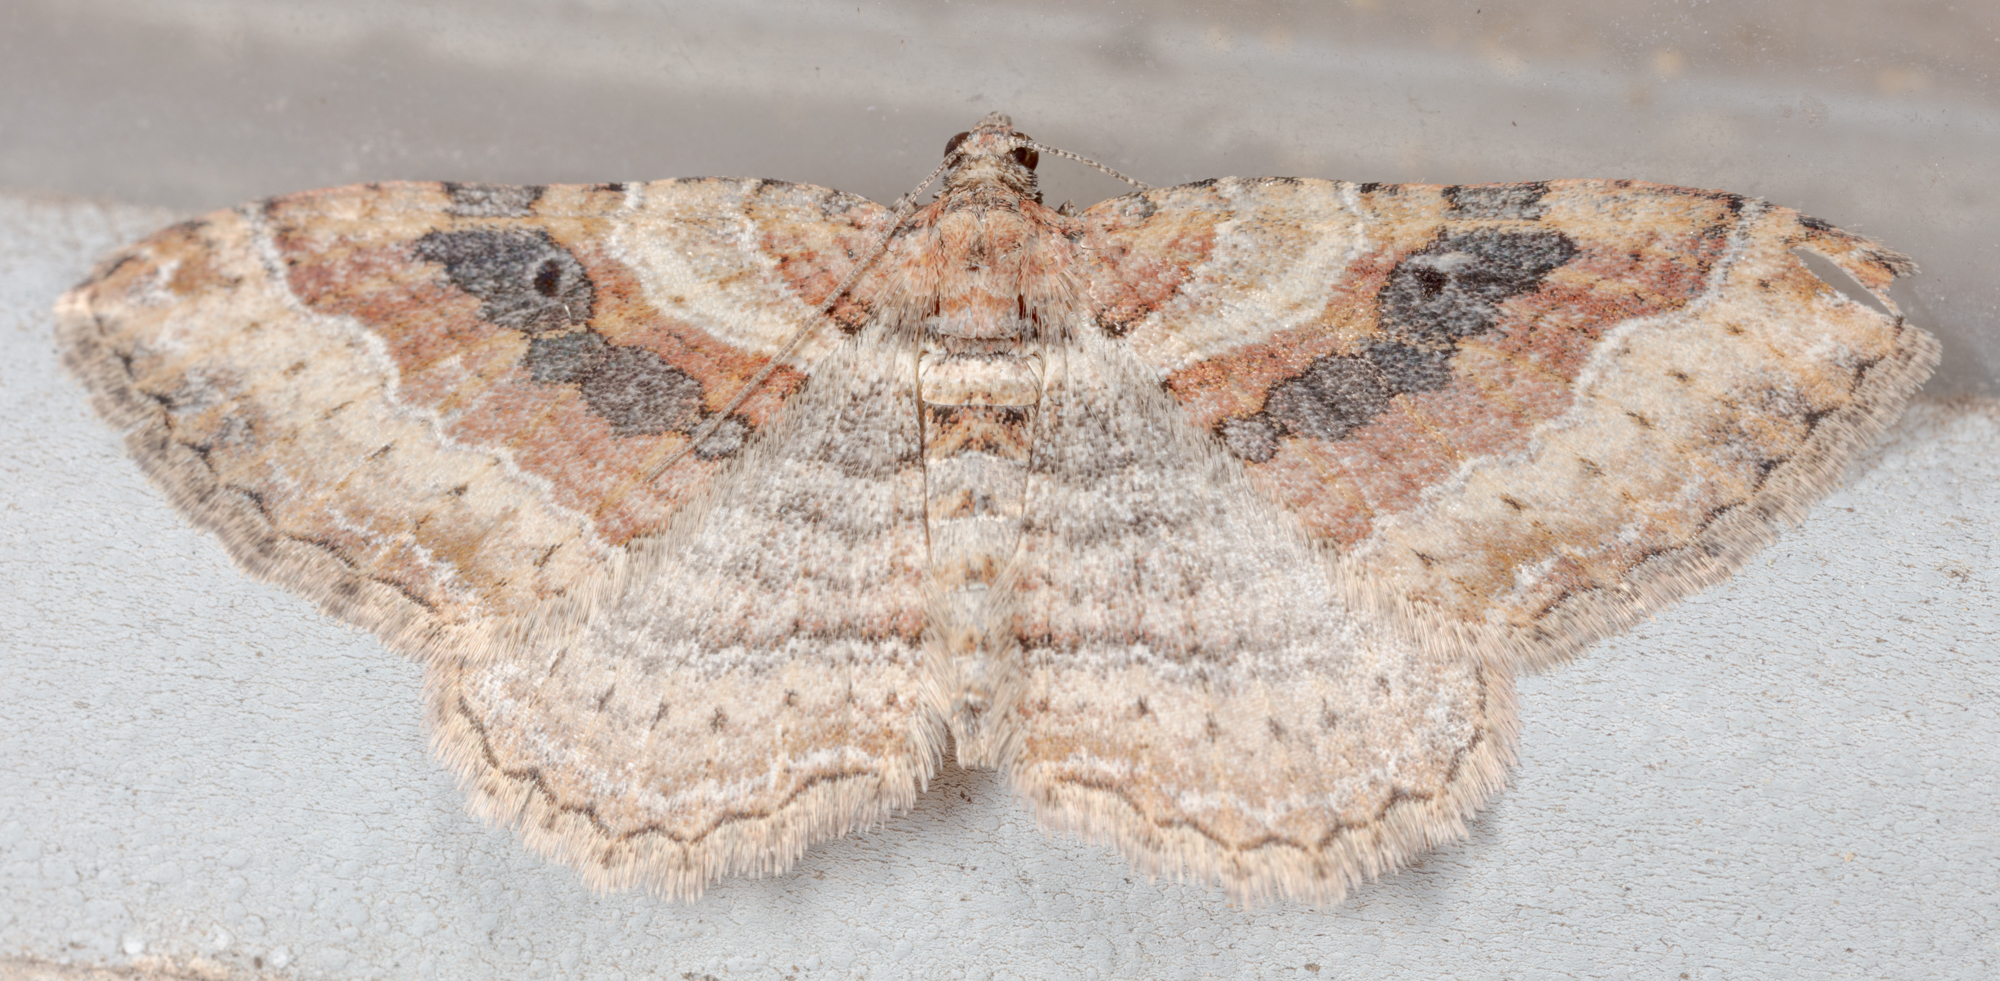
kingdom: Animalia
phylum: Arthropoda
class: Insecta
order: Lepidoptera
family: Geometridae
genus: Costaconvexa
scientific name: Costaconvexa centrostrigaria
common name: Bent-line carpet
